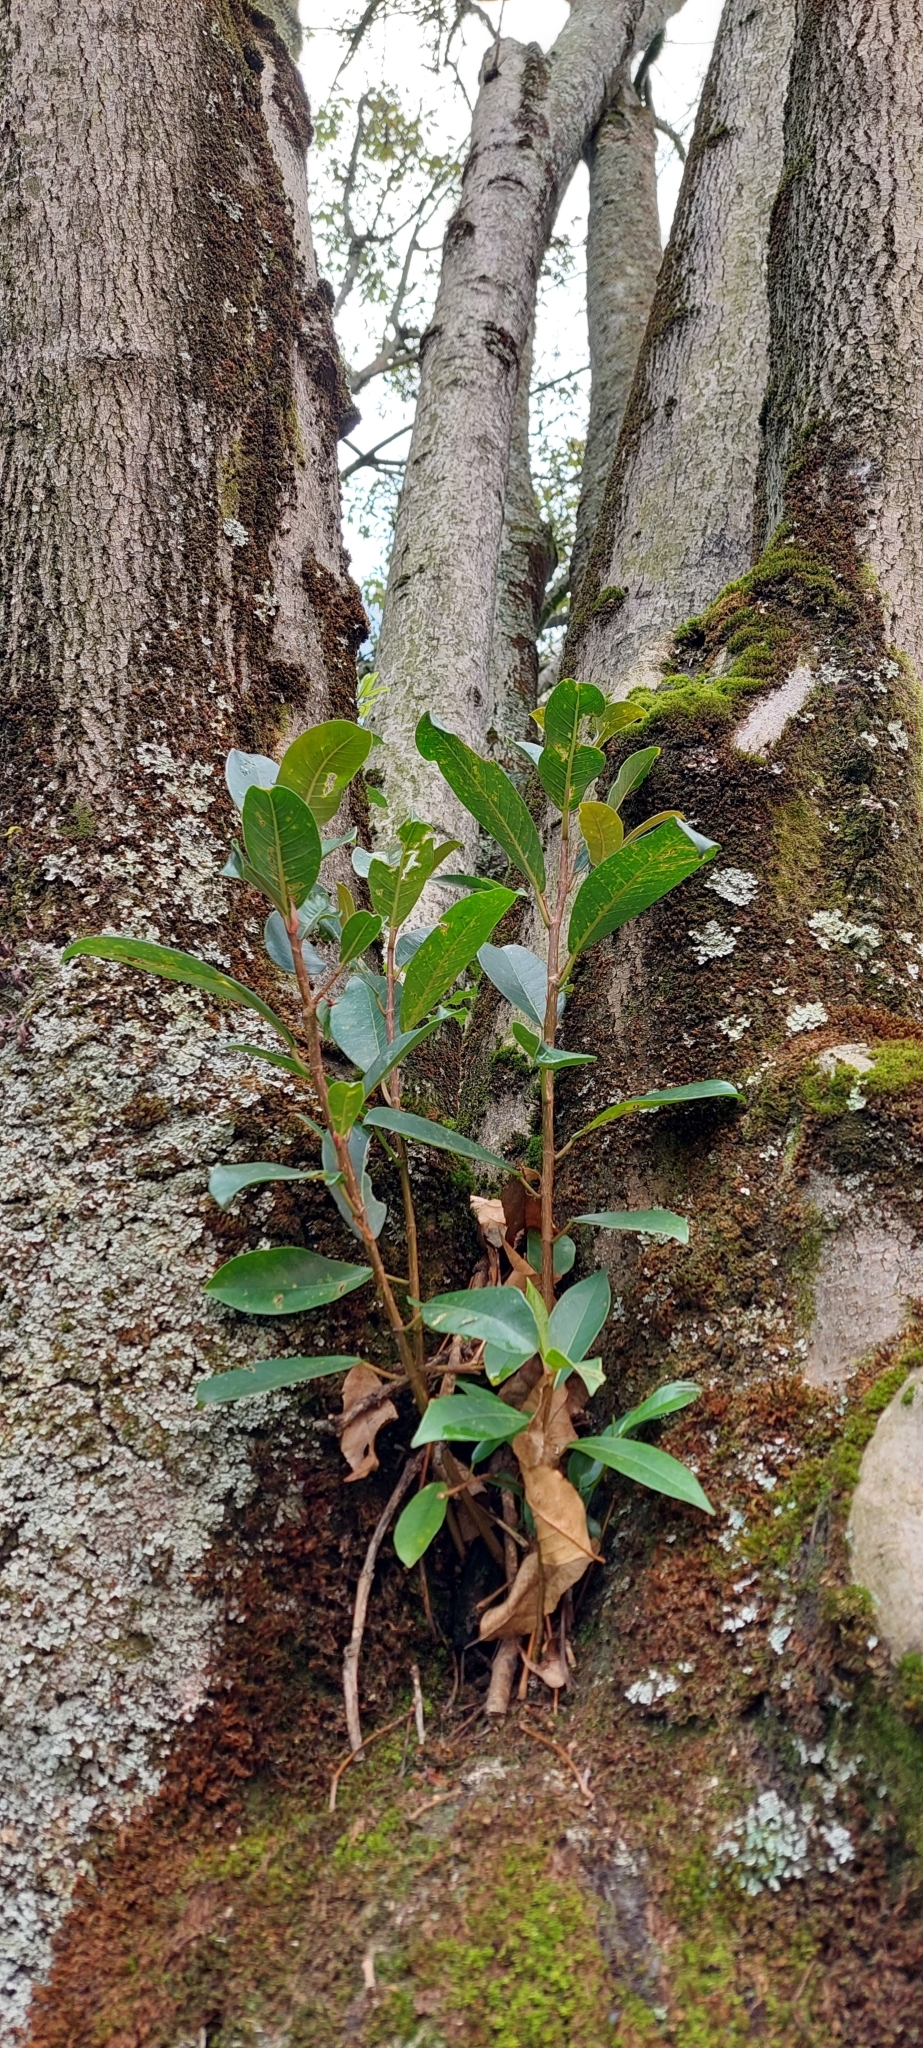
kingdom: Plantae
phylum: Tracheophyta
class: Magnoliopsida
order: Rosales
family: Moraceae
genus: Ficus
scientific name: Ficus americana
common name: Jamaican cherry fig
